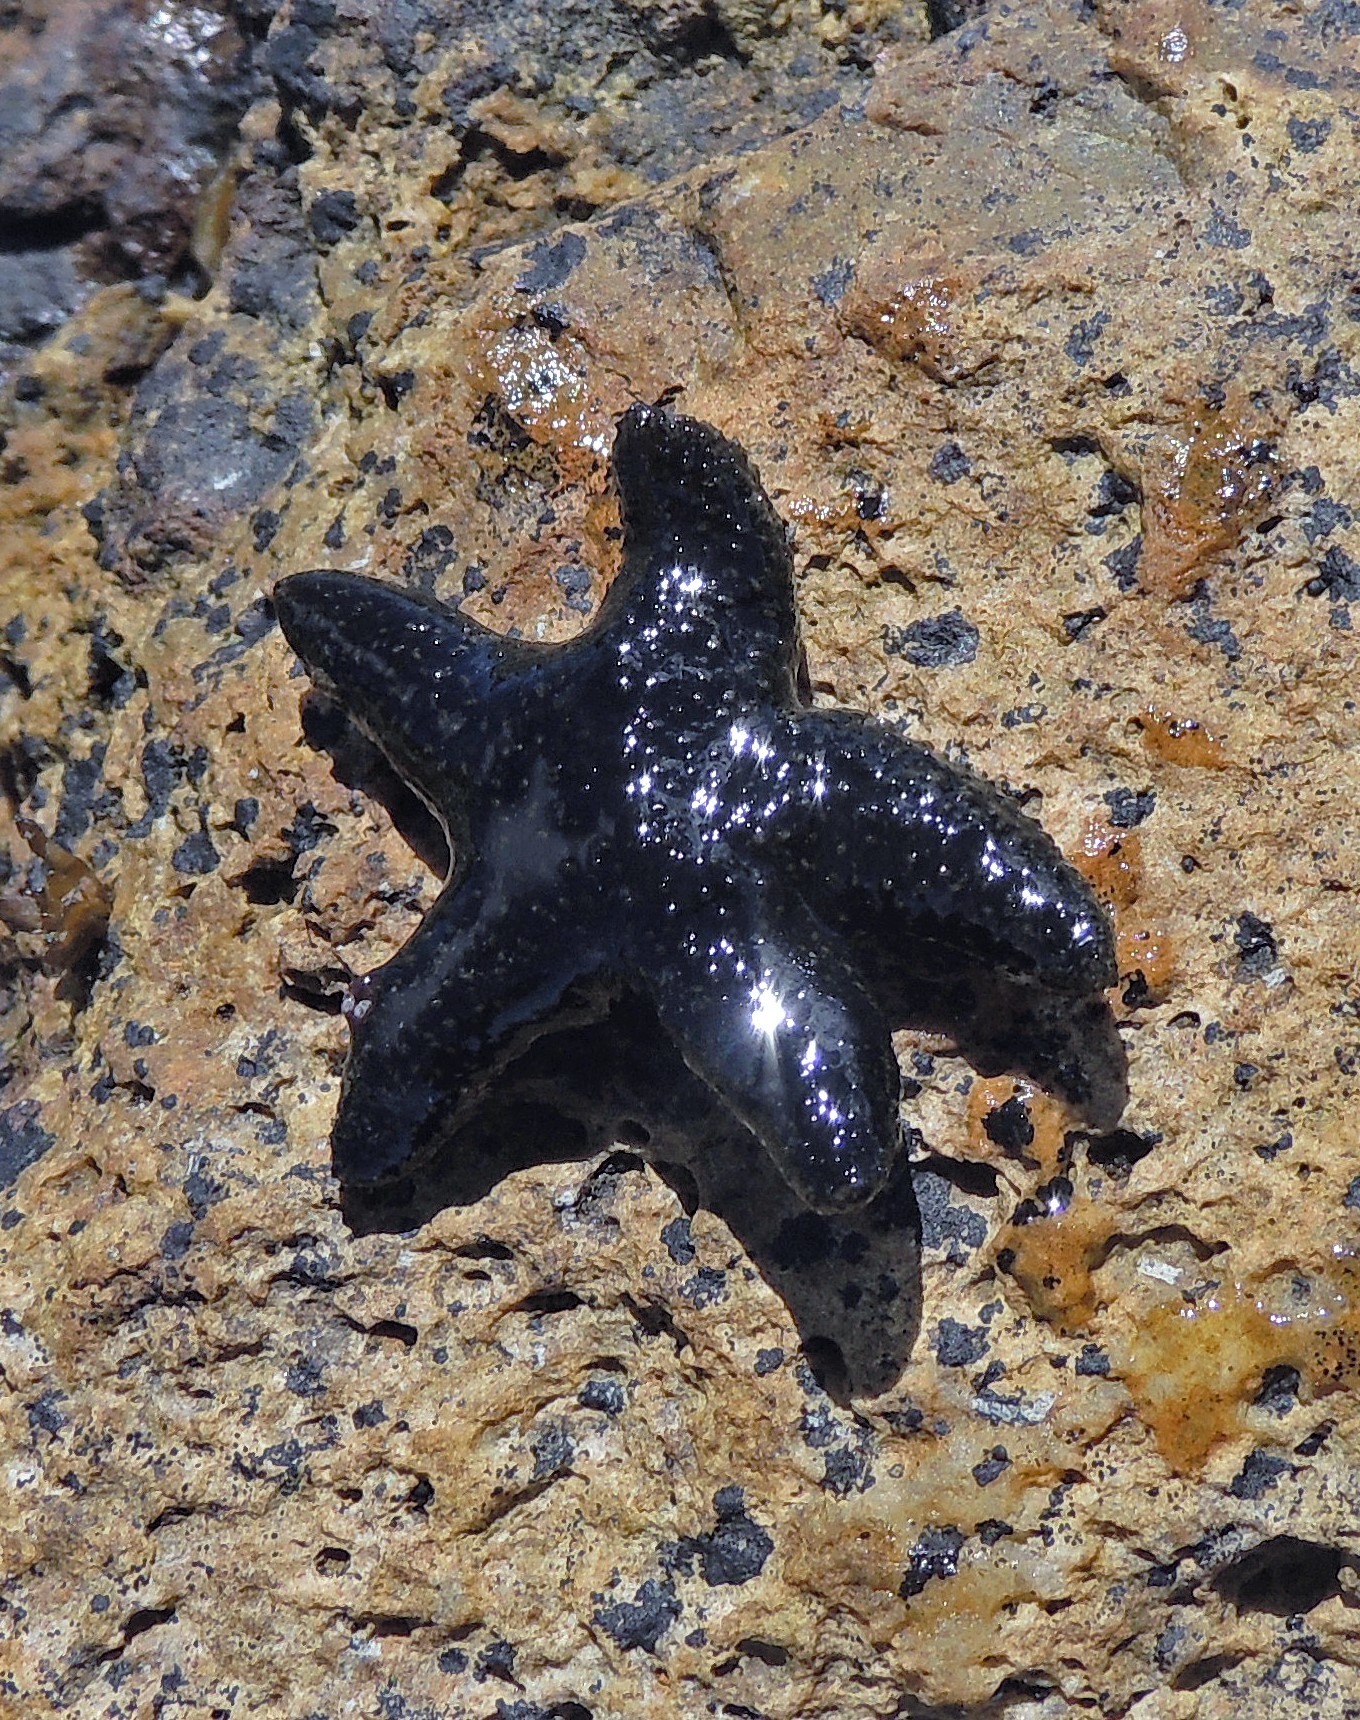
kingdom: Animalia
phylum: Echinodermata
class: Asteroidea
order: Forcipulatida
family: Asteriidae
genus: Anasterias
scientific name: Anasterias antarctica
